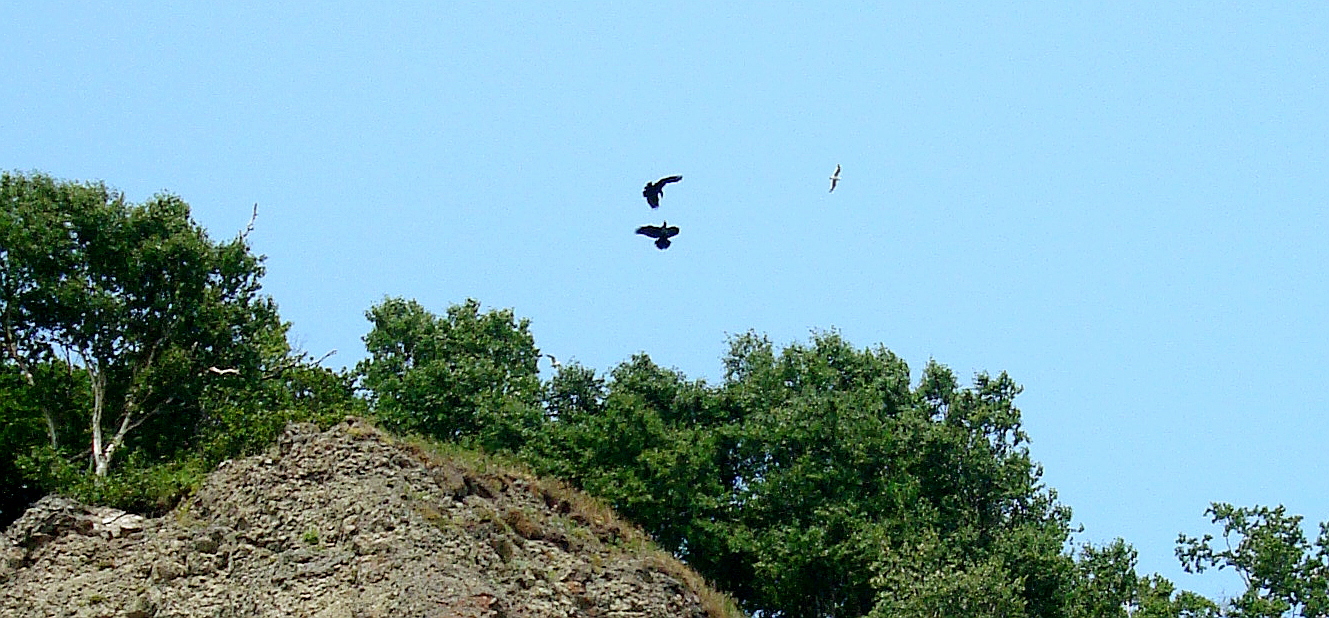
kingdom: Animalia
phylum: Chordata
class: Aves
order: Passeriformes
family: Corvidae
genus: Corvus
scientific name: Corvus corax
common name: Common raven
